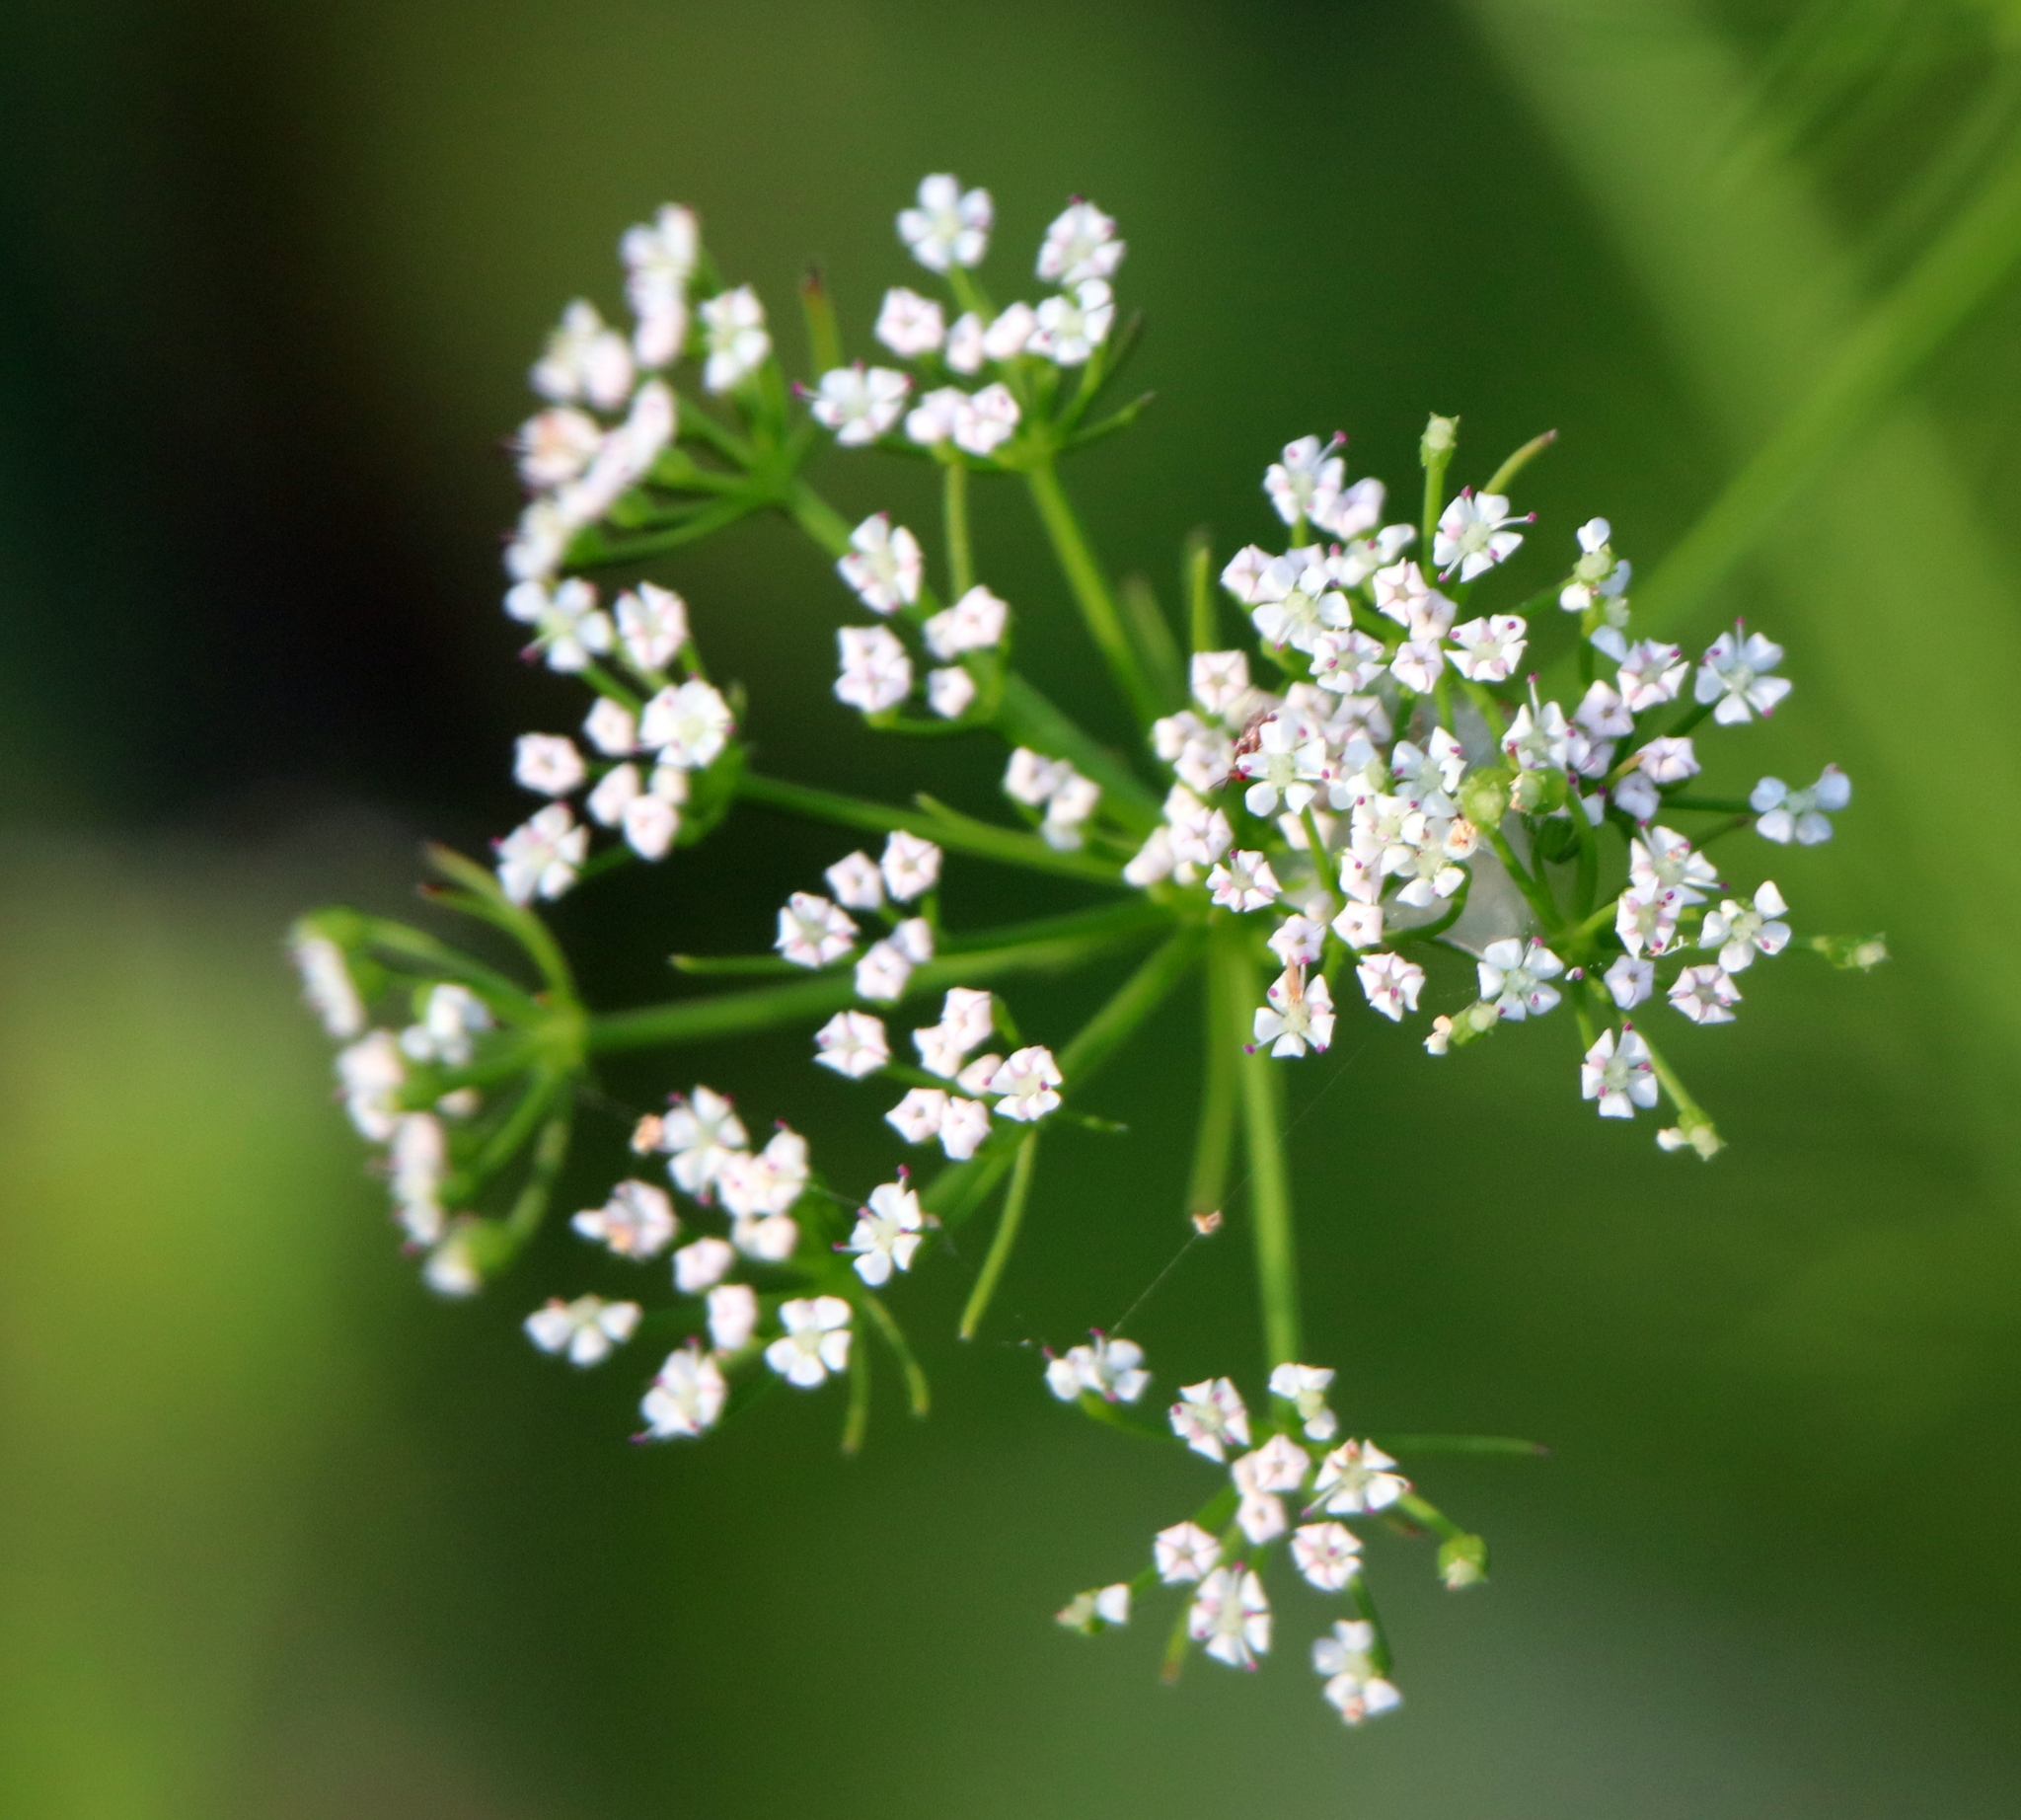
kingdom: Plantae
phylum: Tracheophyta
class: Magnoliopsida
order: Apiales
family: Apiaceae
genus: Ptilimnium
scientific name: Ptilimnium capillaceum
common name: Herbwilliam
